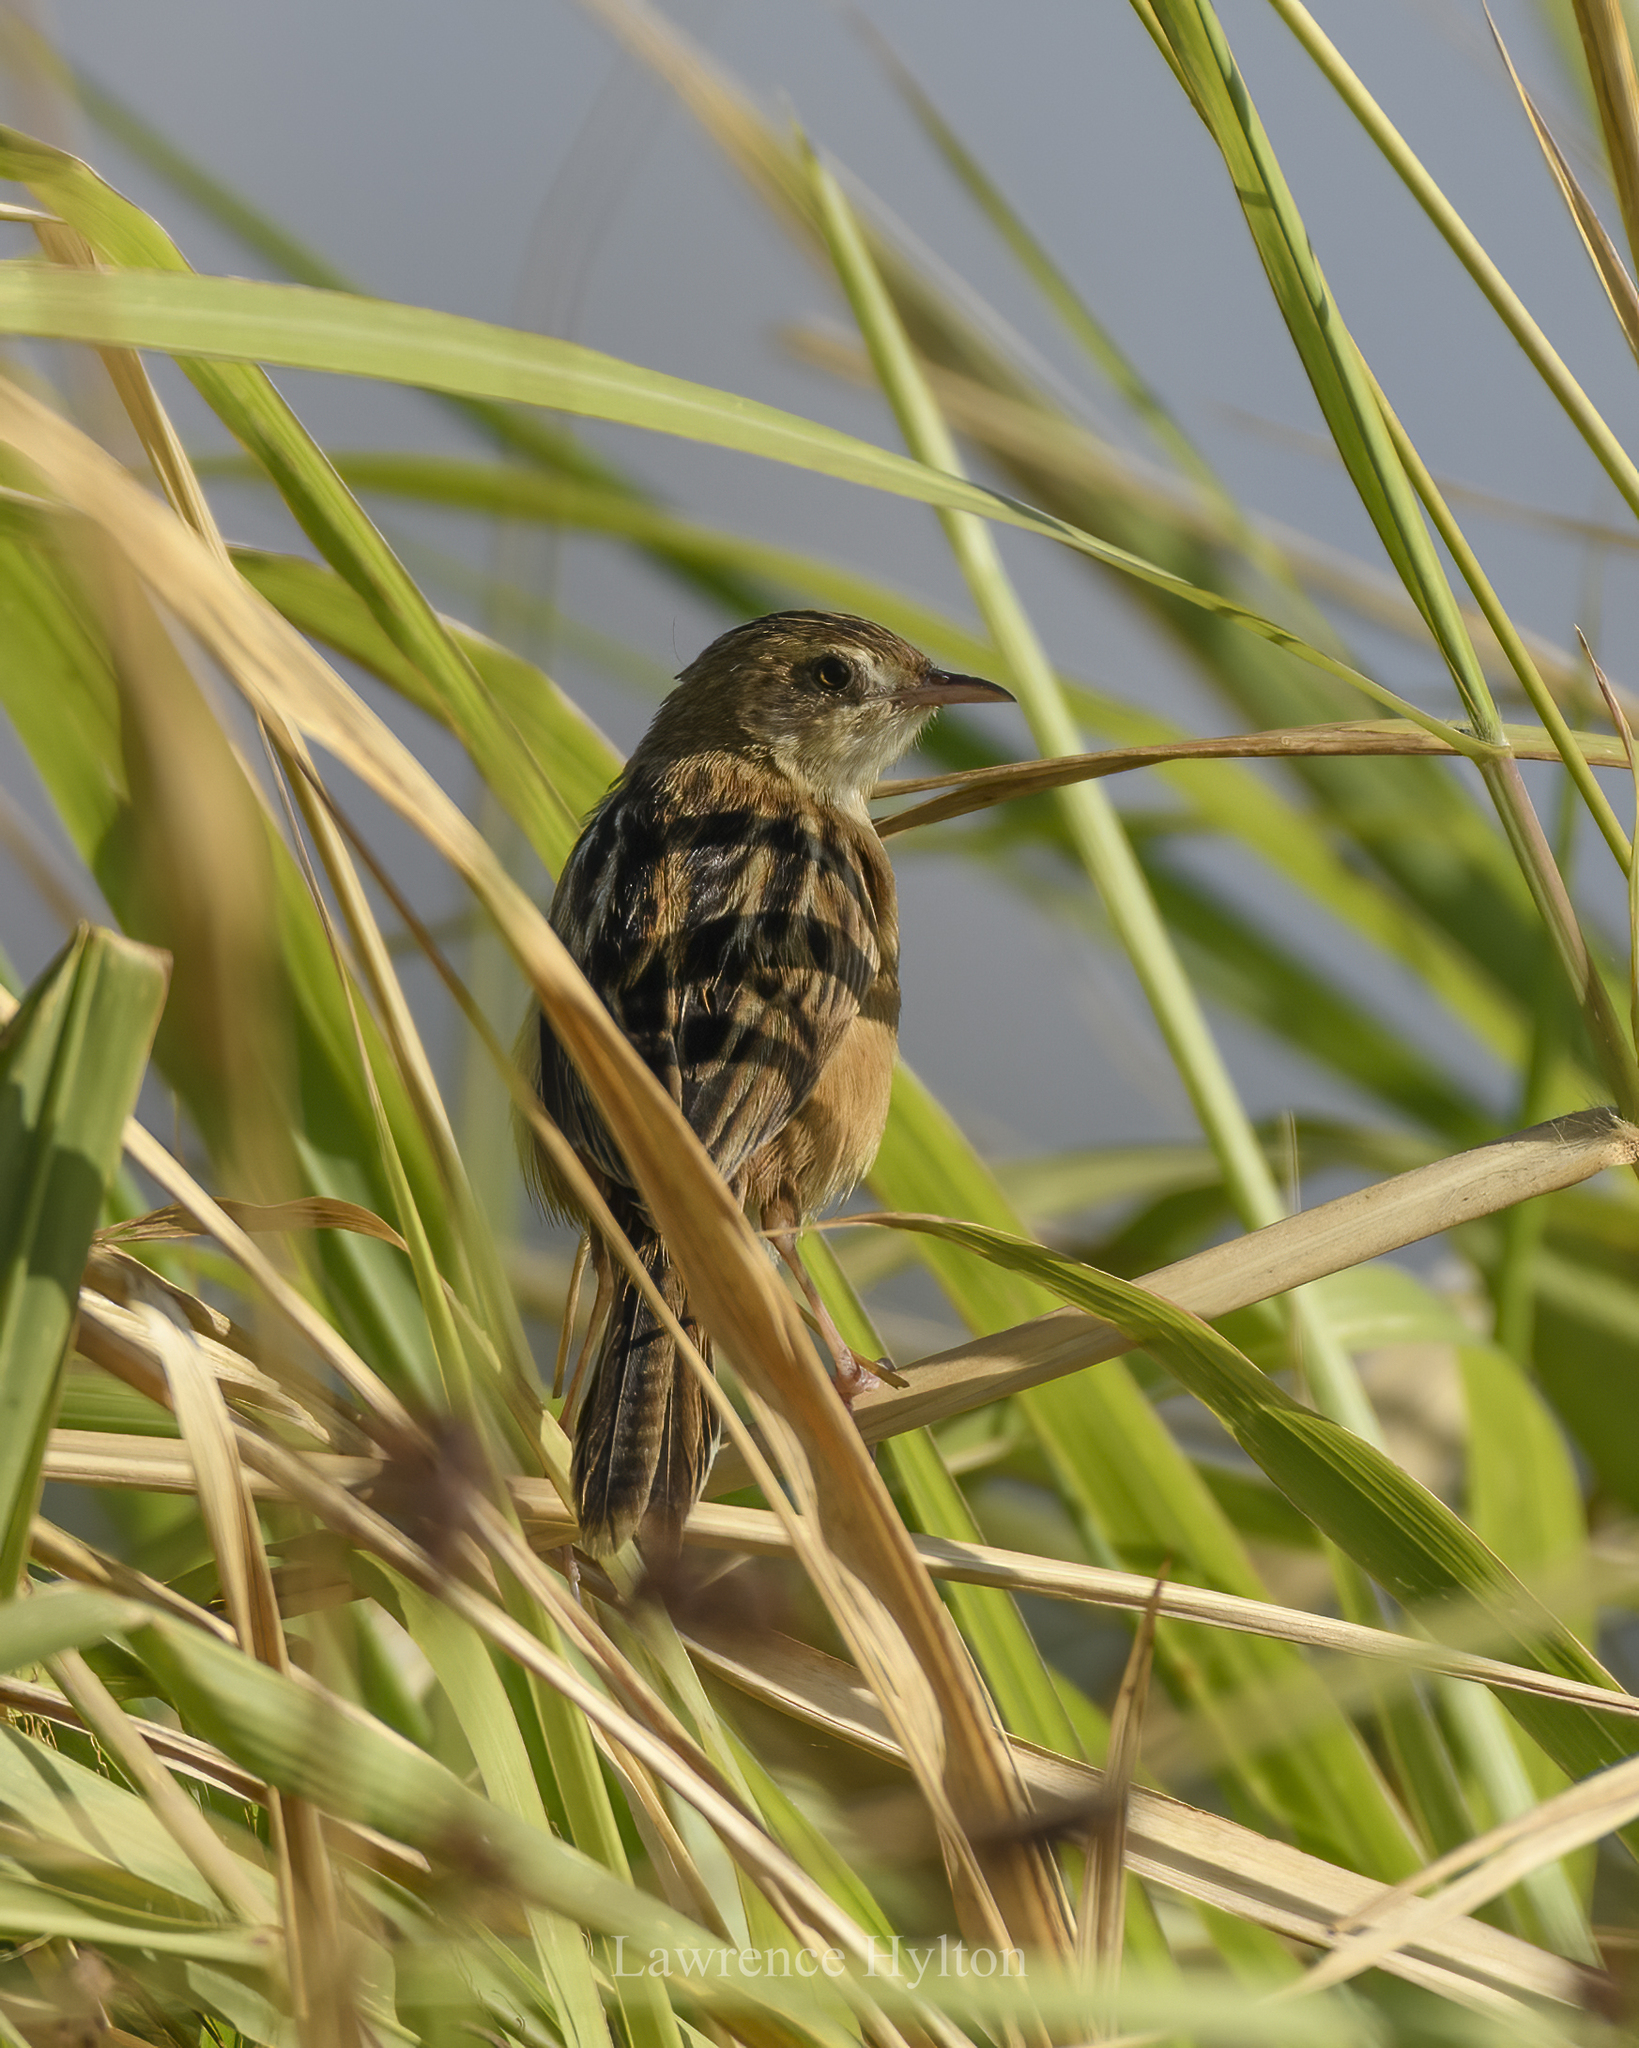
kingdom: Animalia
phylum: Chordata
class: Aves
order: Passeriformes
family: Cisticolidae
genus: Cisticola
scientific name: Cisticola juncidis
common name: Zitting cisticola
